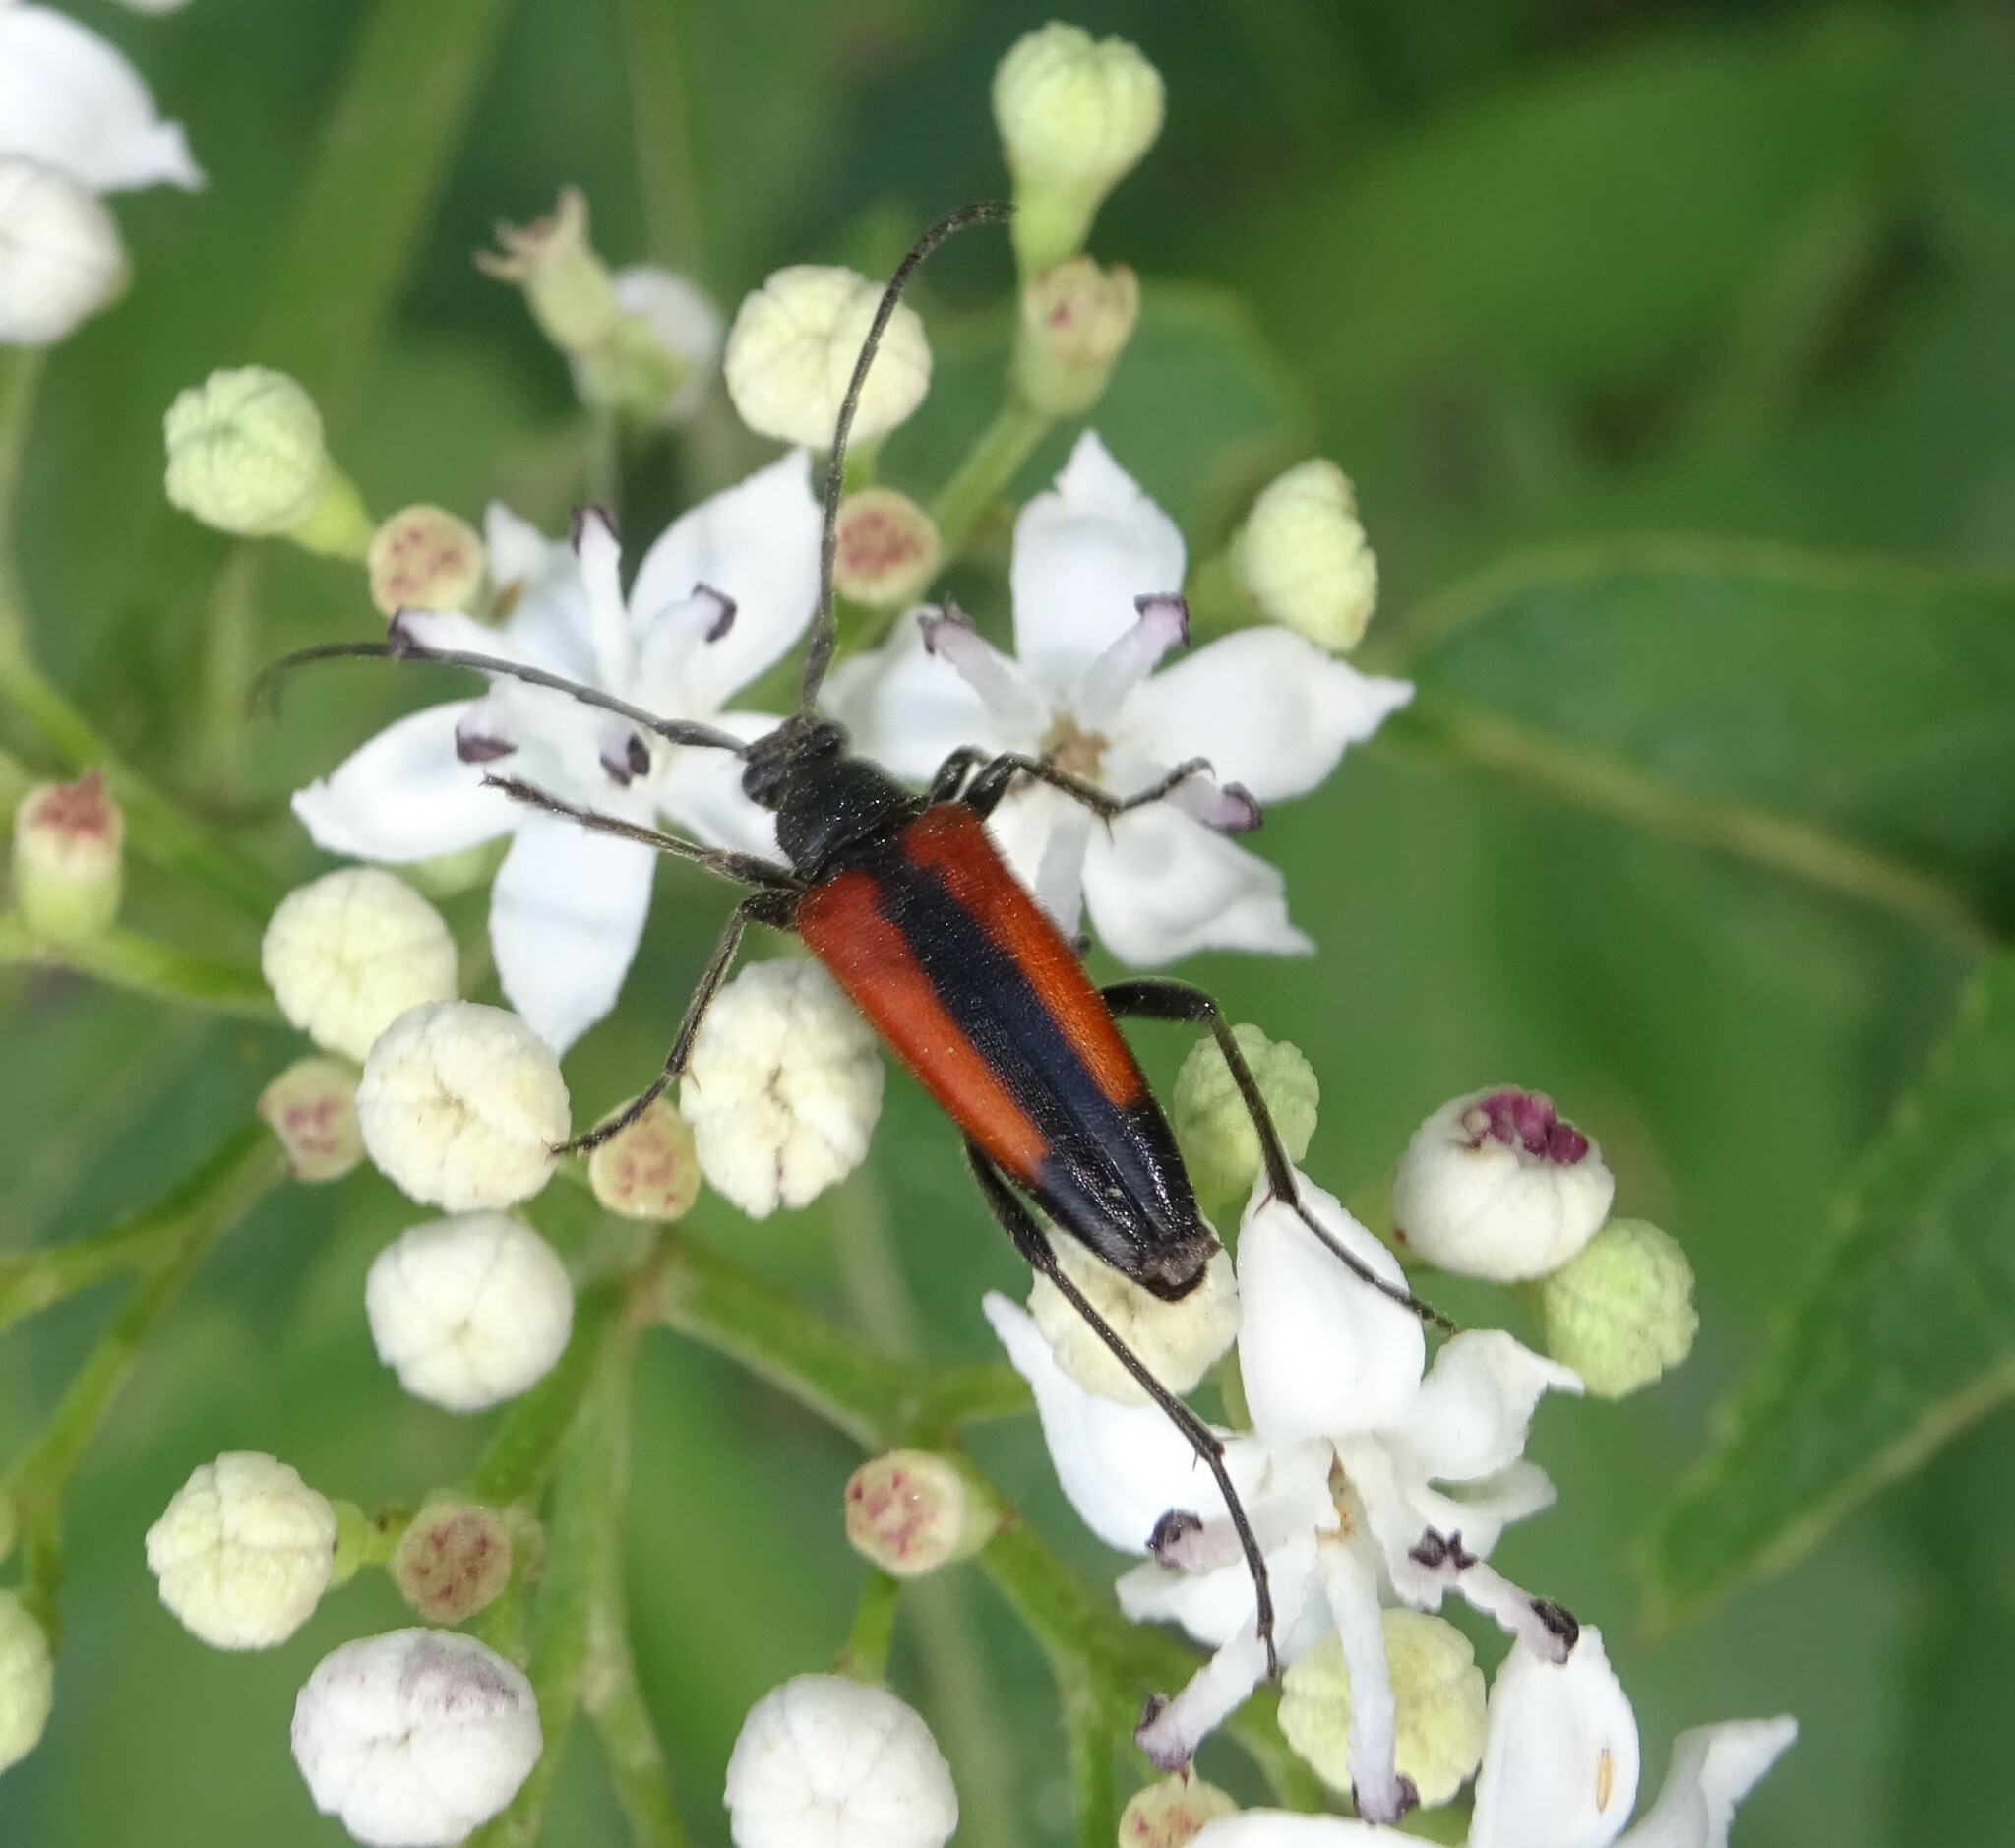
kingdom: Animalia
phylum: Arthropoda
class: Insecta
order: Coleoptera
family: Cerambycidae
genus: Stenurella
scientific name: Stenurella melanura
